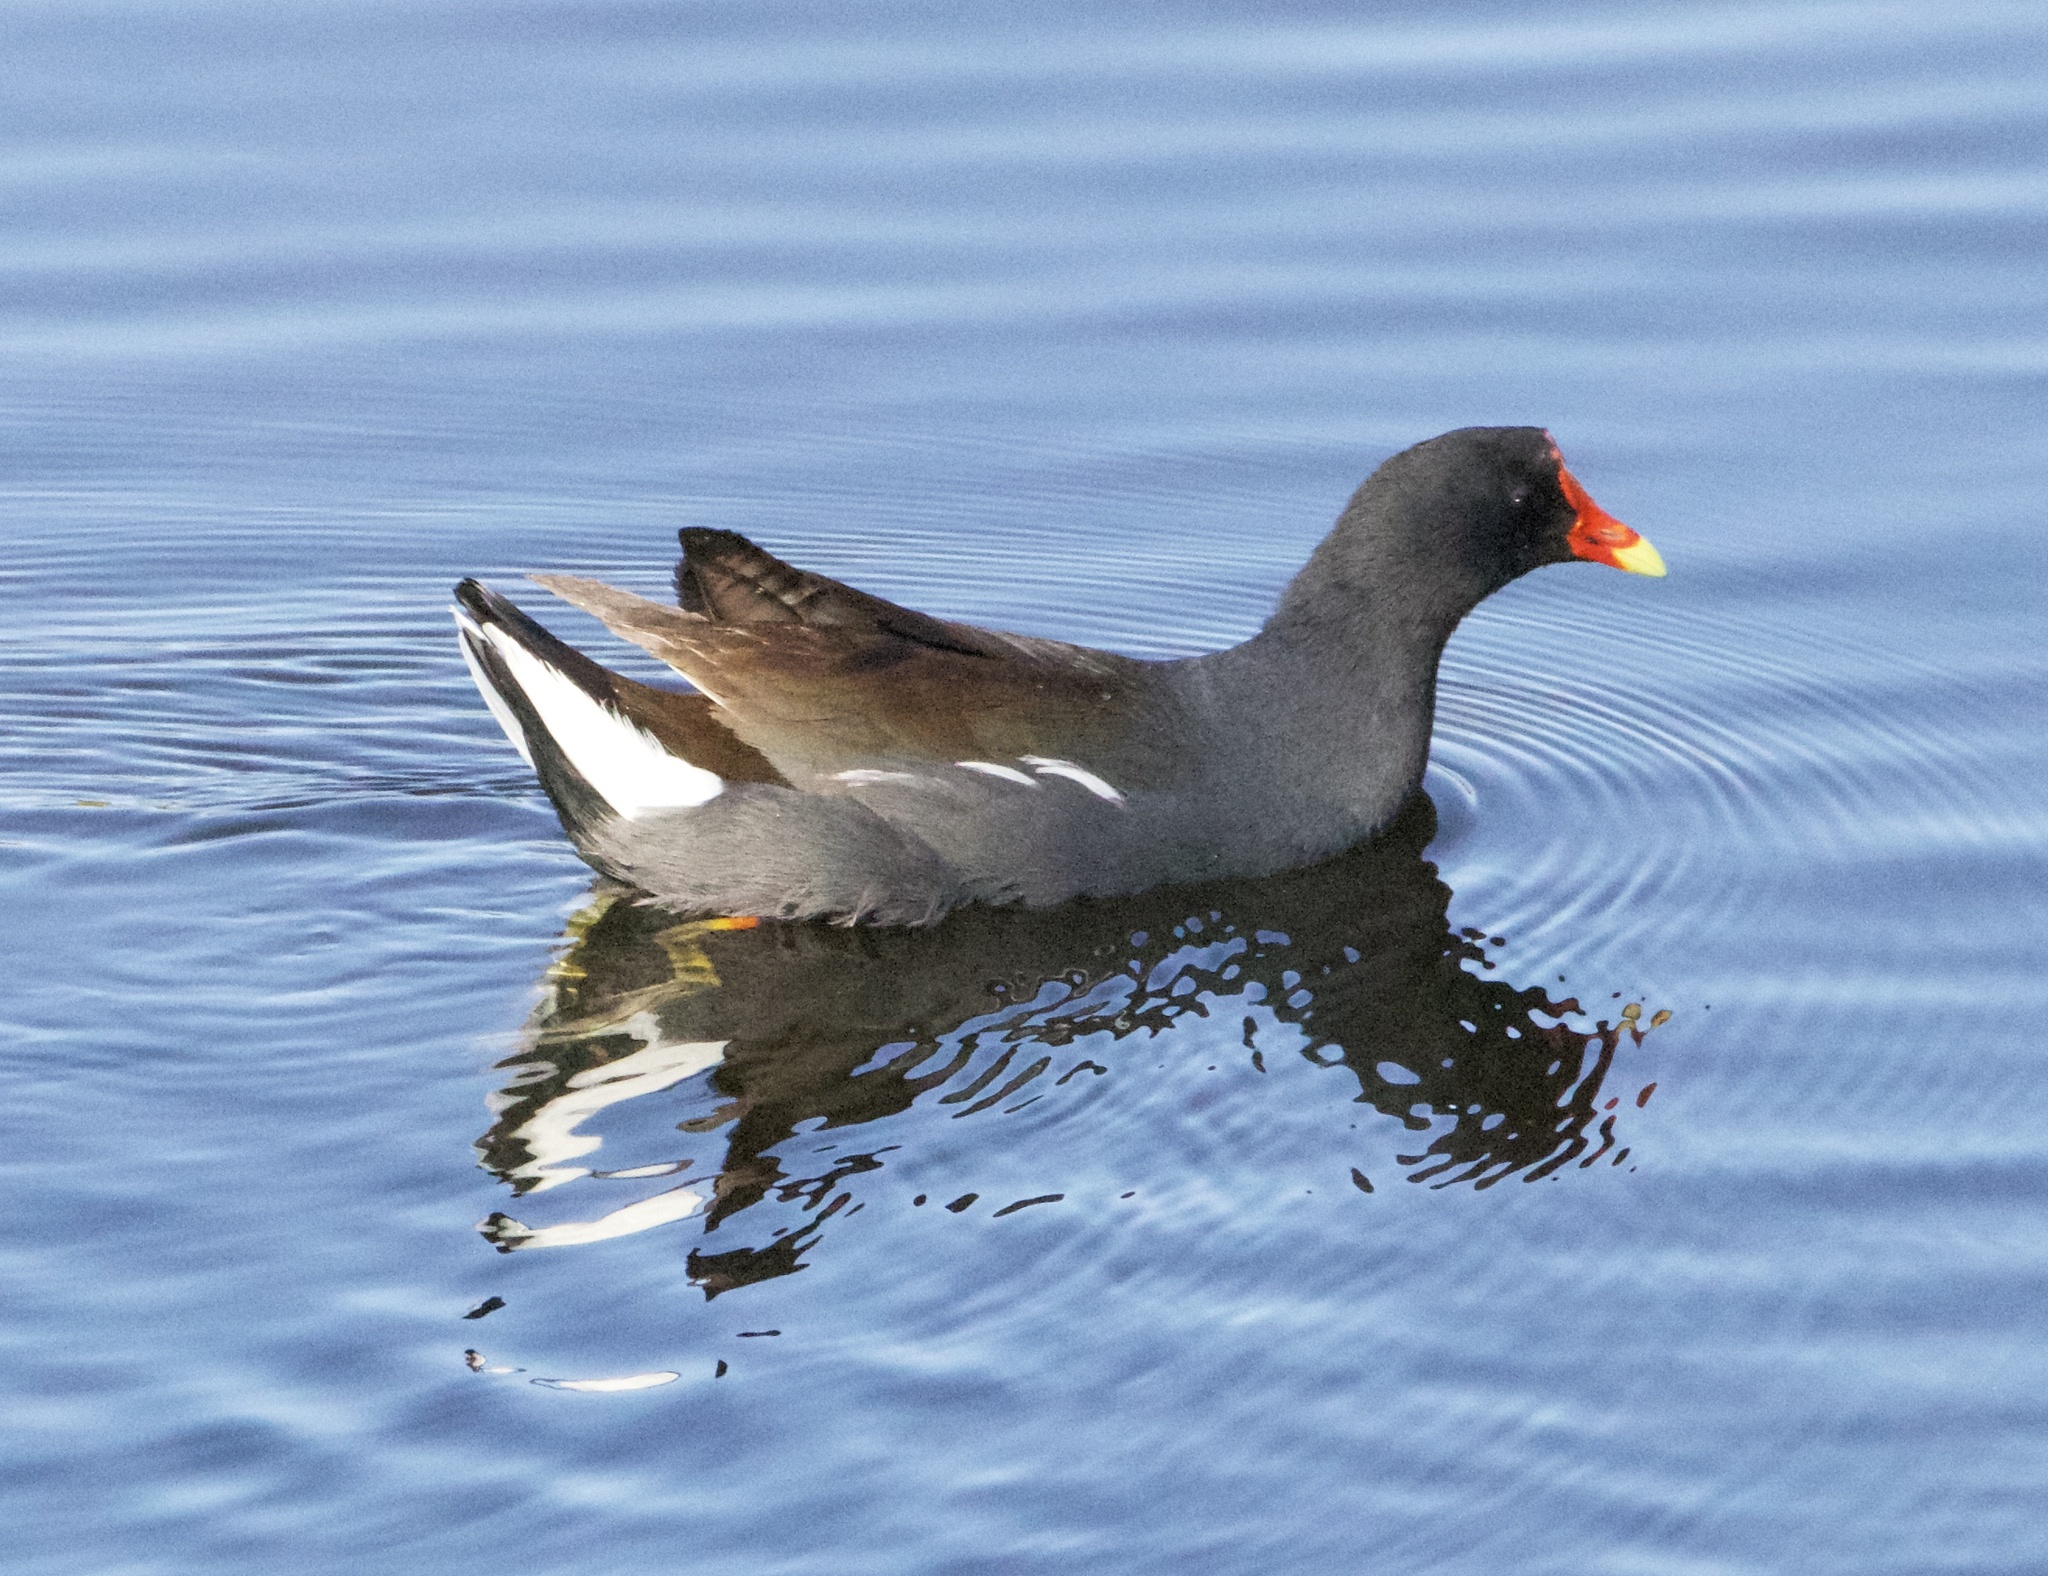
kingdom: Animalia
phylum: Chordata
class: Aves
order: Gruiformes
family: Rallidae
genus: Gallinula
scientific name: Gallinula chloropus
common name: Common moorhen
